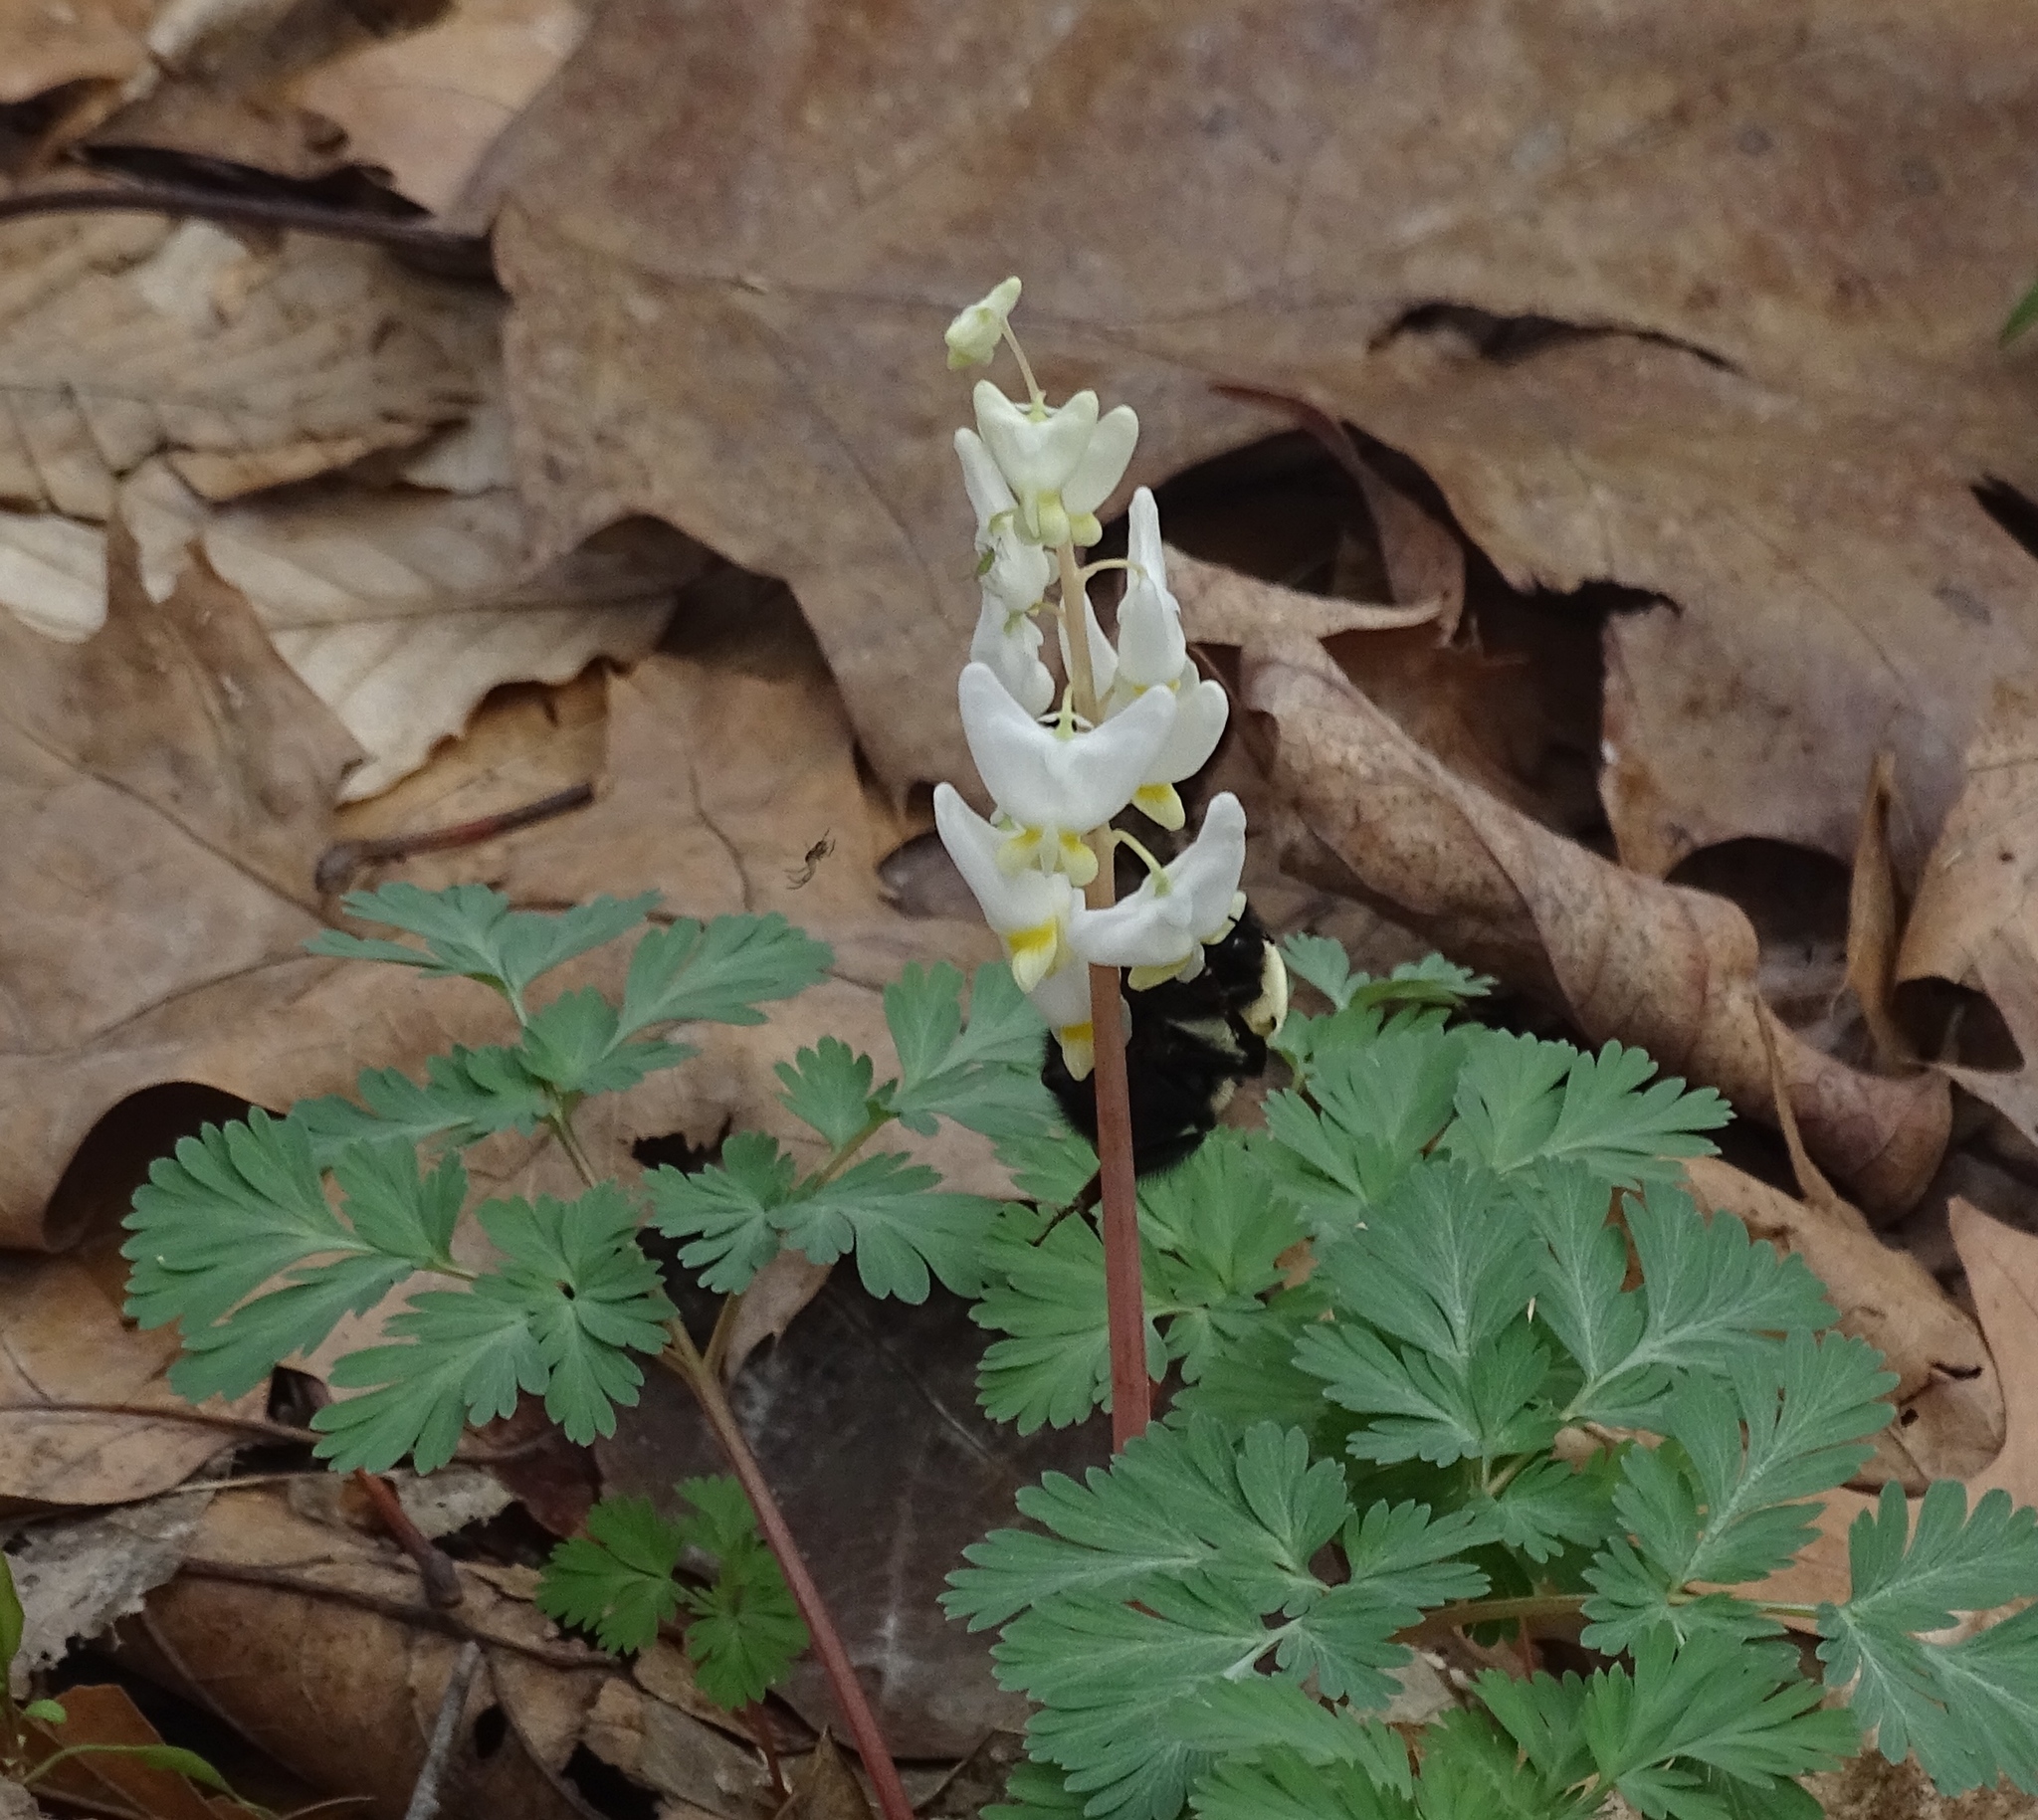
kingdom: Plantae
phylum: Tracheophyta
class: Magnoliopsida
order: Ranunculales
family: Papaveraceae
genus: Dicentra
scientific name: Dicentra cucullaria
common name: Dutchman's breeches
